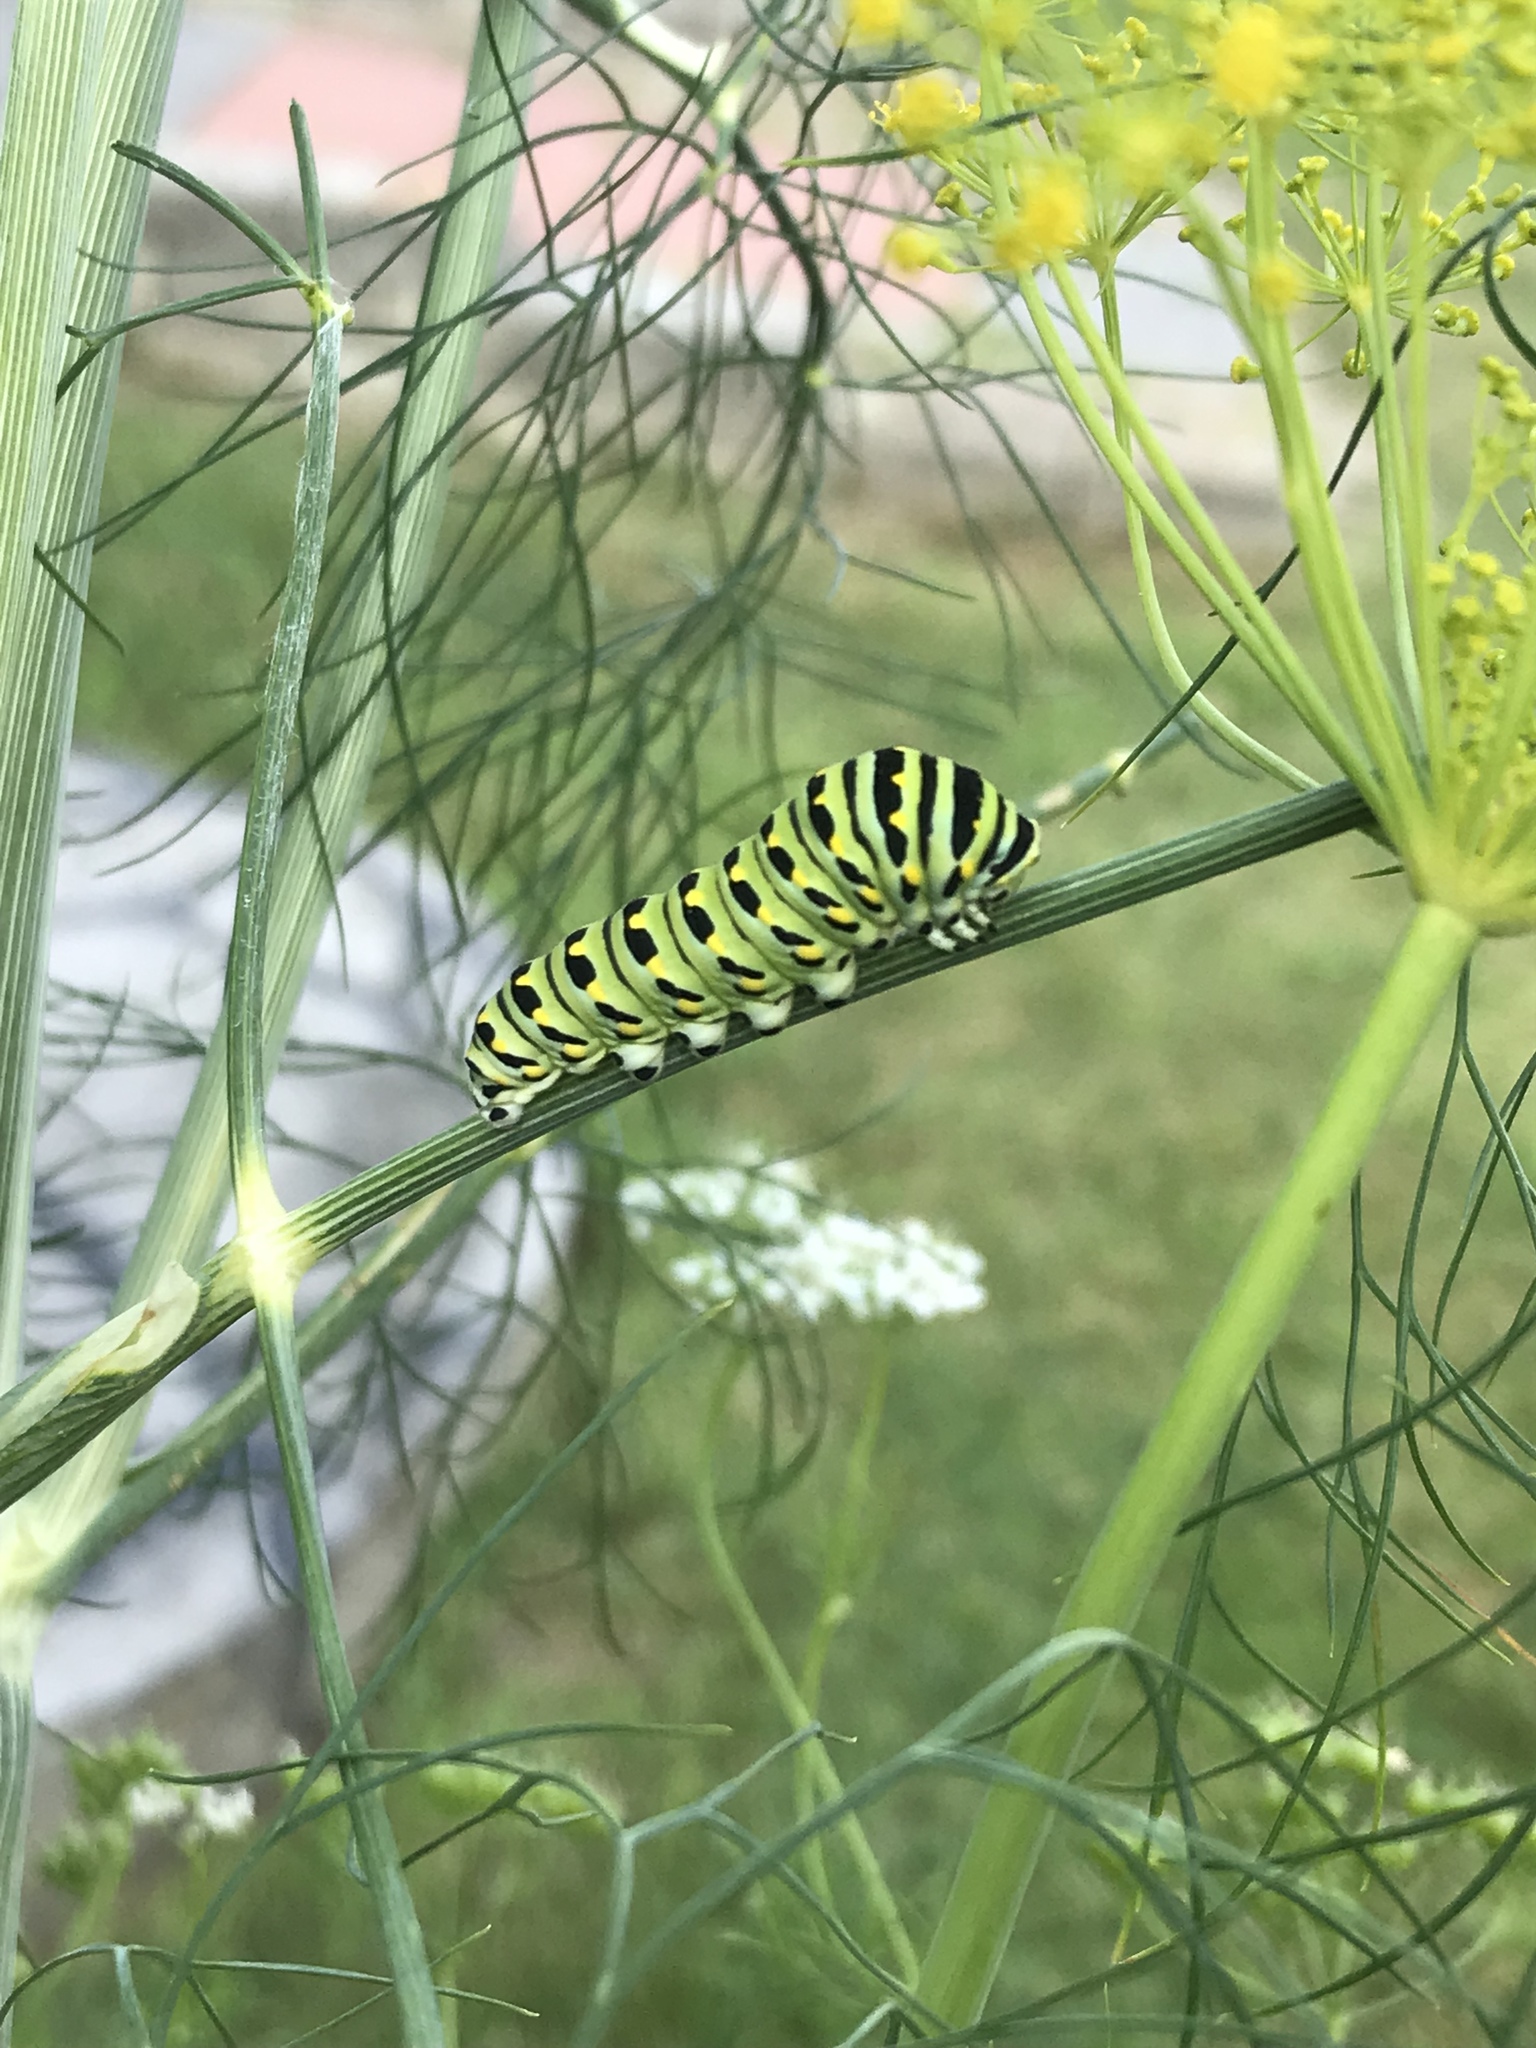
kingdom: Animalia
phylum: Arthropoda
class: Insecta
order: Lepidoptera
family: Papilionidae
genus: Papilio
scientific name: Papilio polyxenes
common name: Black swallowtail
